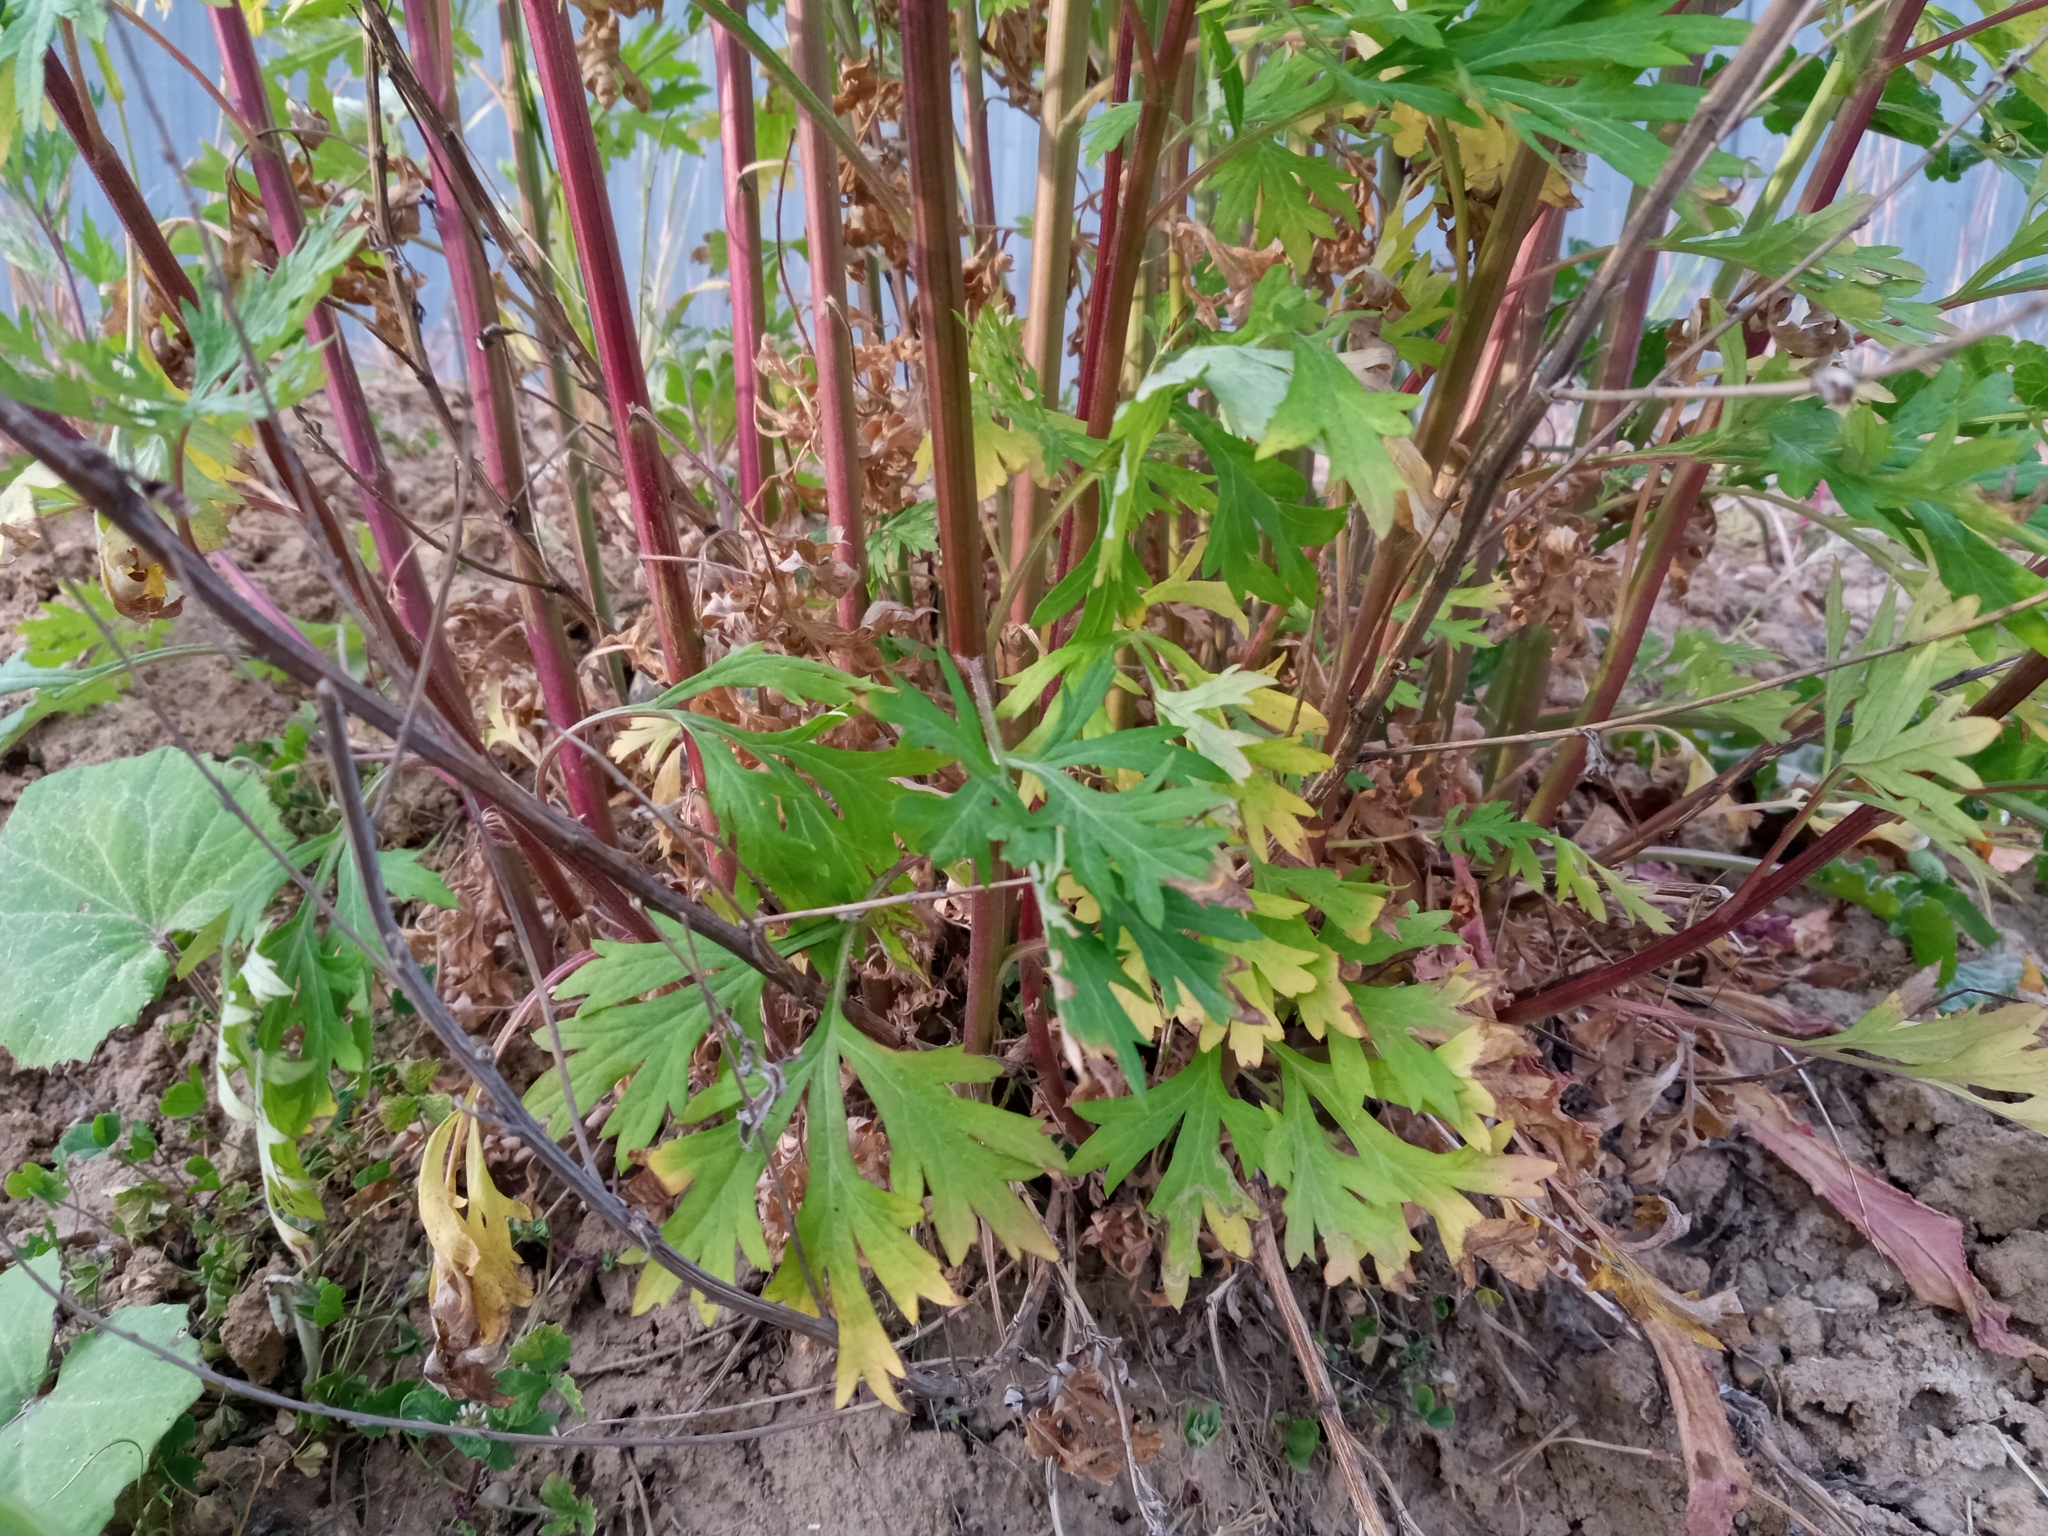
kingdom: Plantae
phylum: Tracheophyta
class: Magnoliopsida
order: Asterales
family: Asteraceae
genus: Artemisia
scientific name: Artemisia vulgaris
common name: Mugwort
